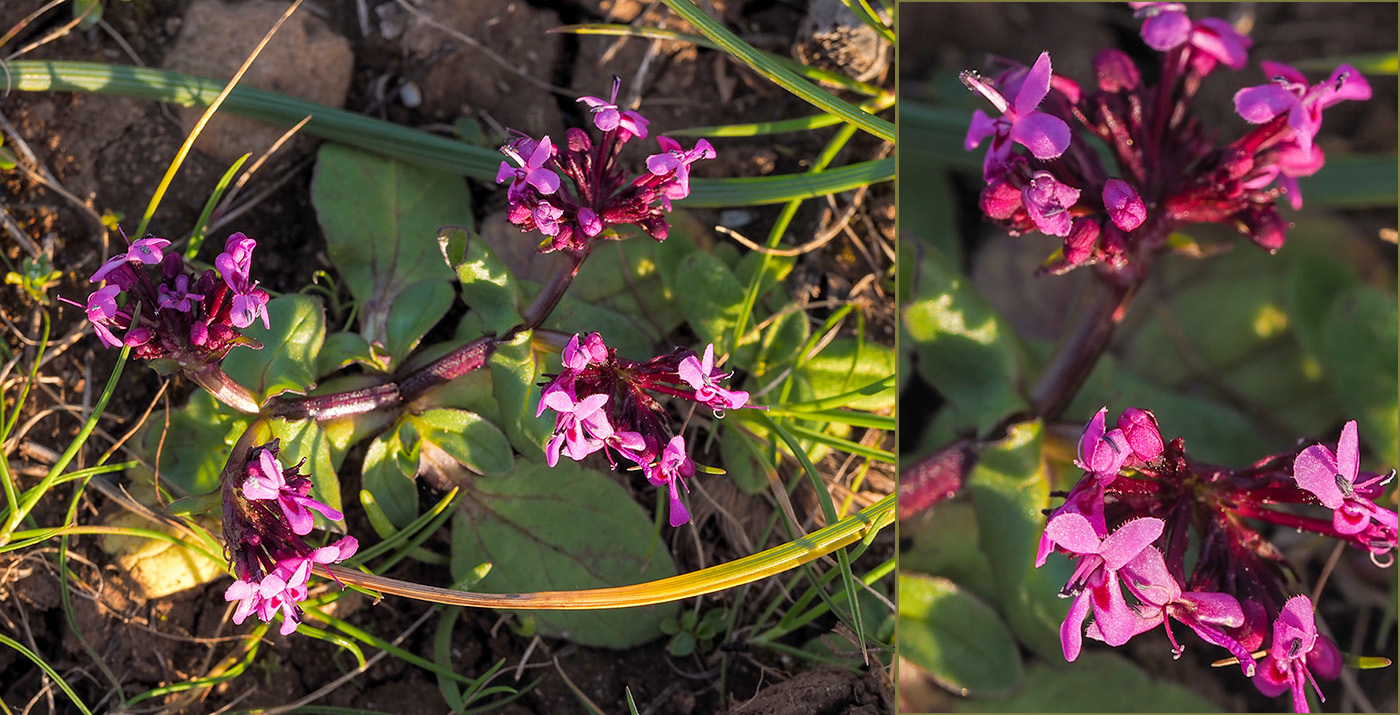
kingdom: Plantae
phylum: Tracheophyta
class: Magnoliopsida
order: Dipsacales
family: Caprifoliaceae
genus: Fedia
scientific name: Fedia graciliflora
